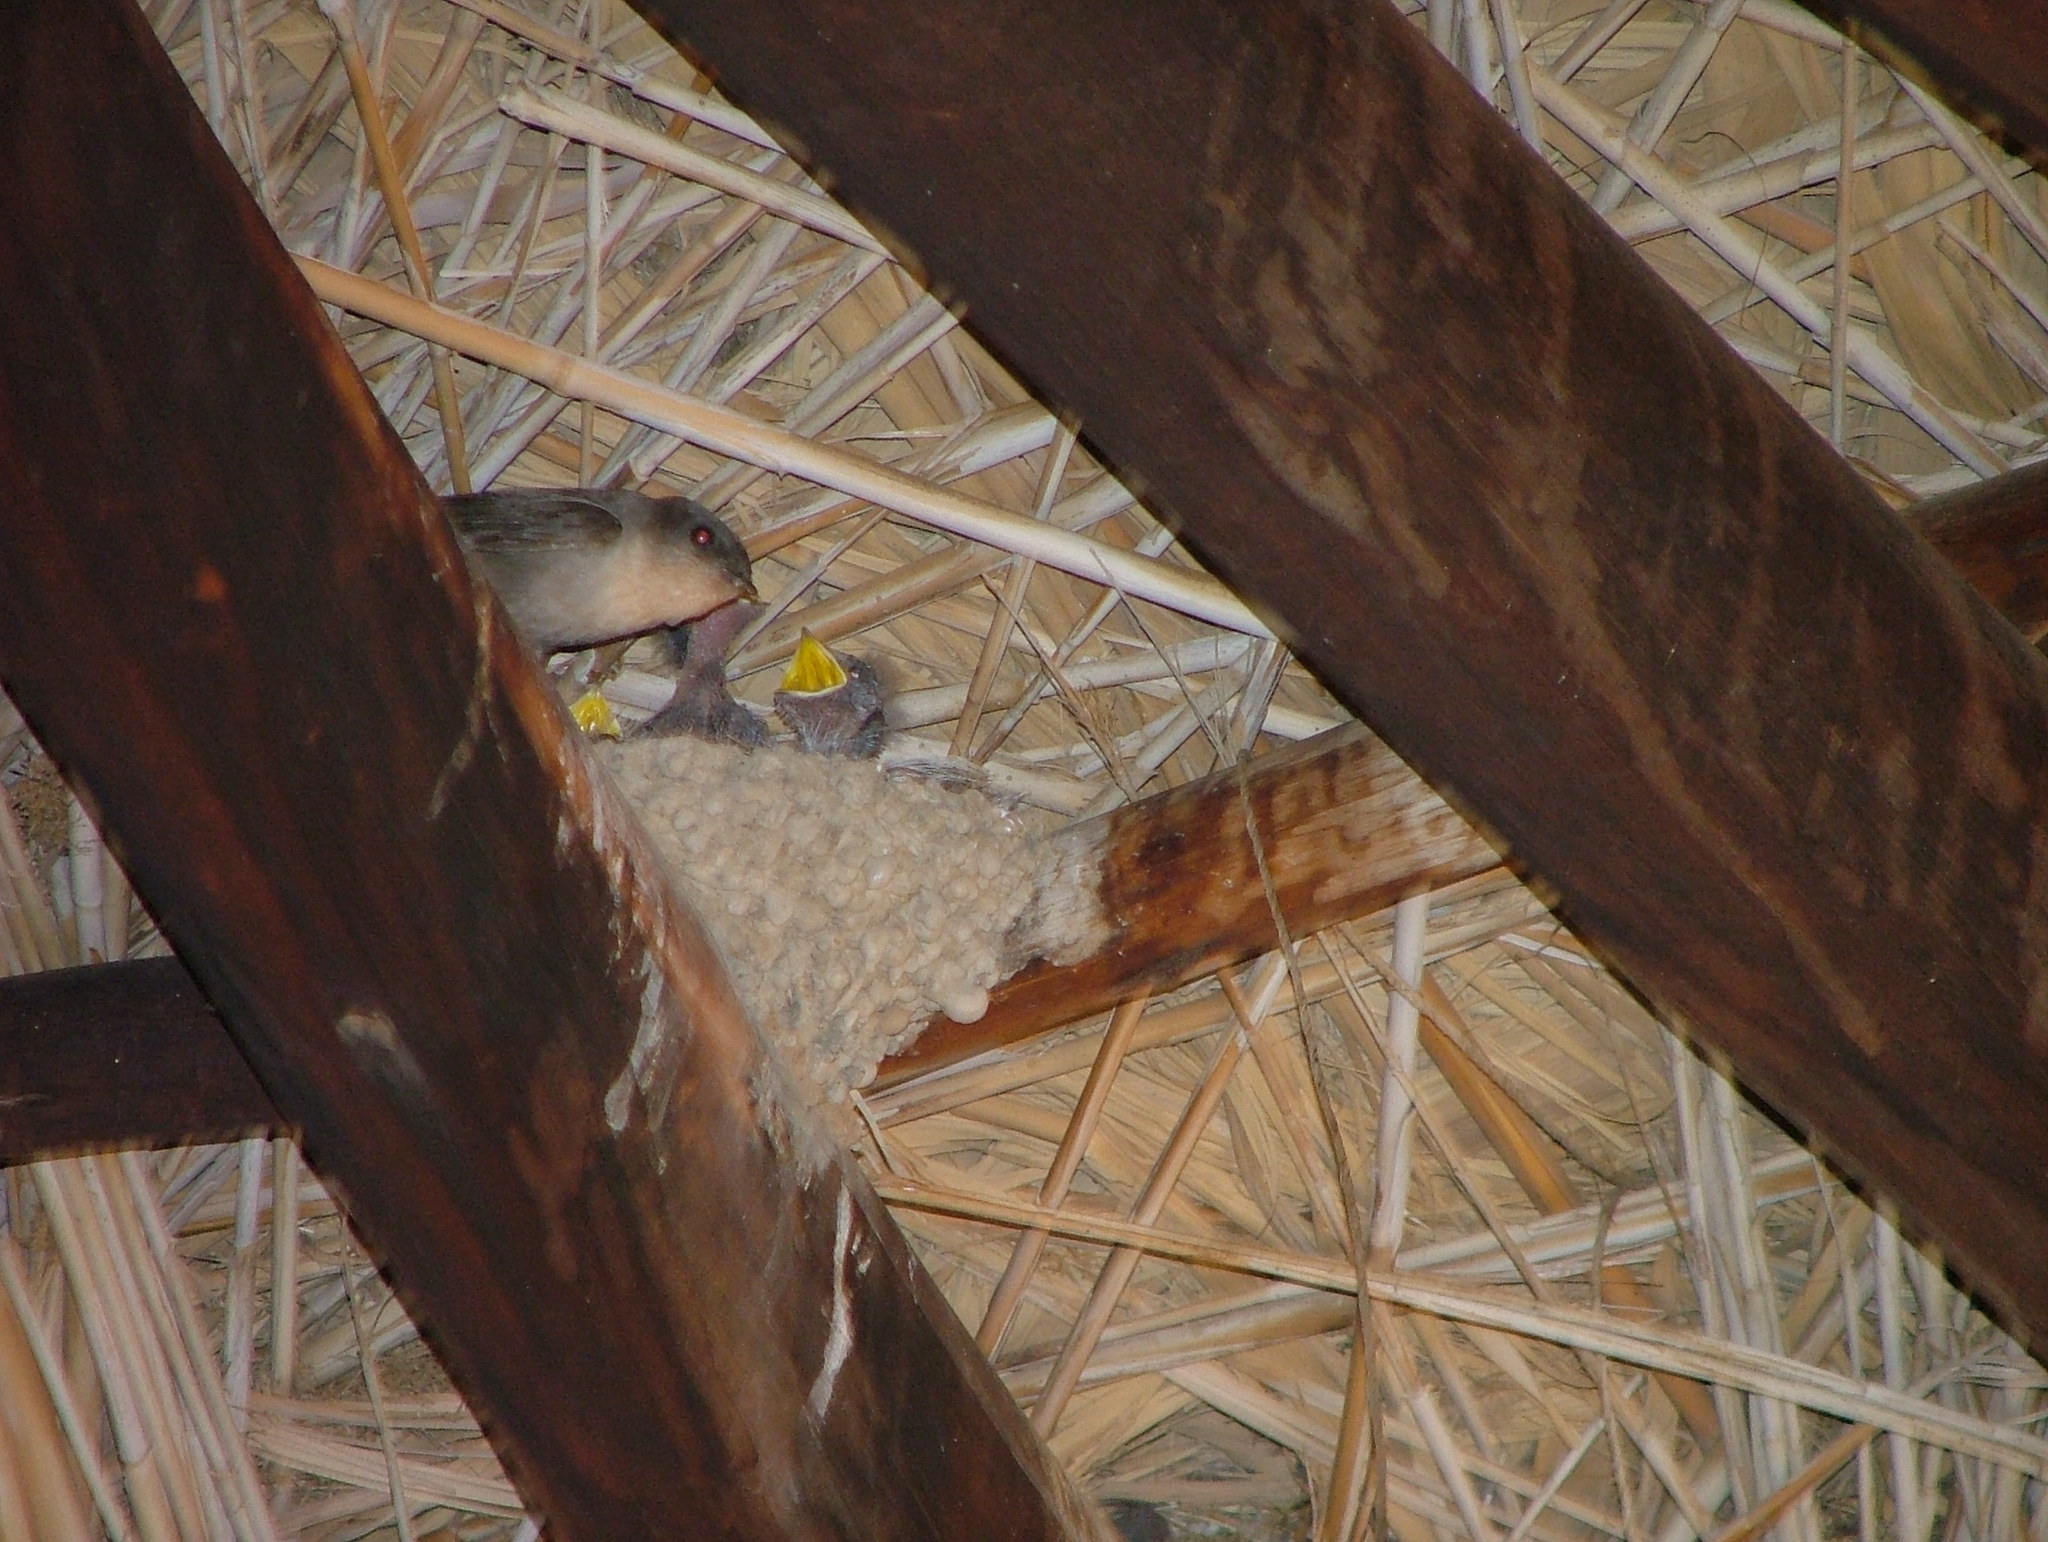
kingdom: Animalia
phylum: Chordata
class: Aves
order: Passeriformes
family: Hirundinidae
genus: Ptyonoprogne
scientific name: Ptyonoprogne fuligula
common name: Rock martin
